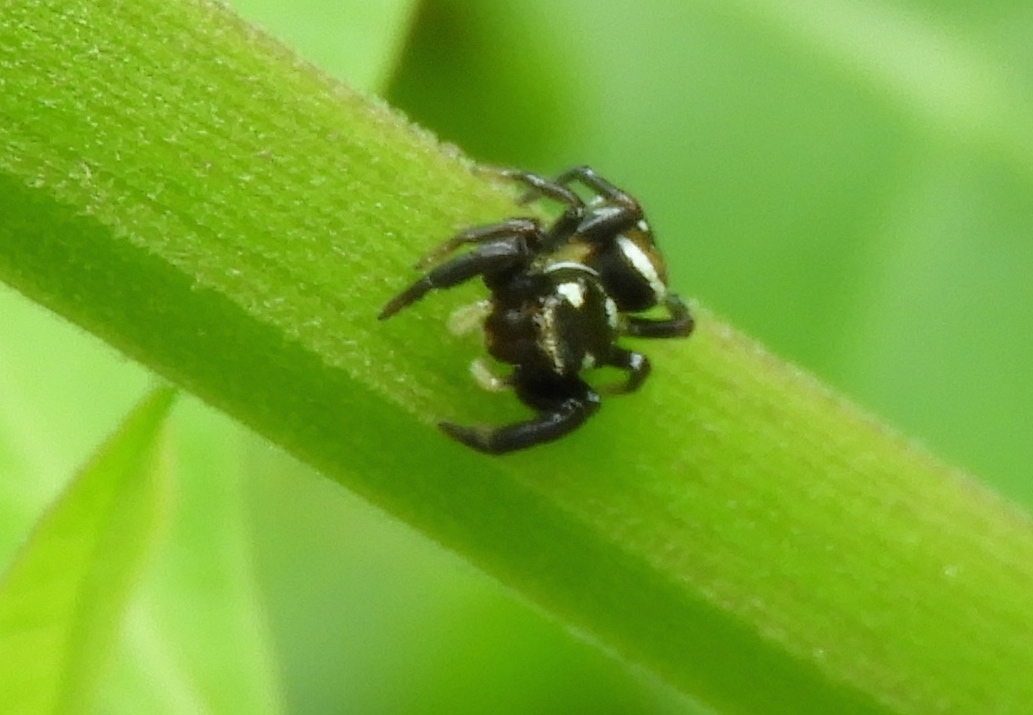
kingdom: Animalia
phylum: Arthropoda
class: Arachnida
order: Araneae
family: Salticidae
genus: Sassacus
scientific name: Sassacus
